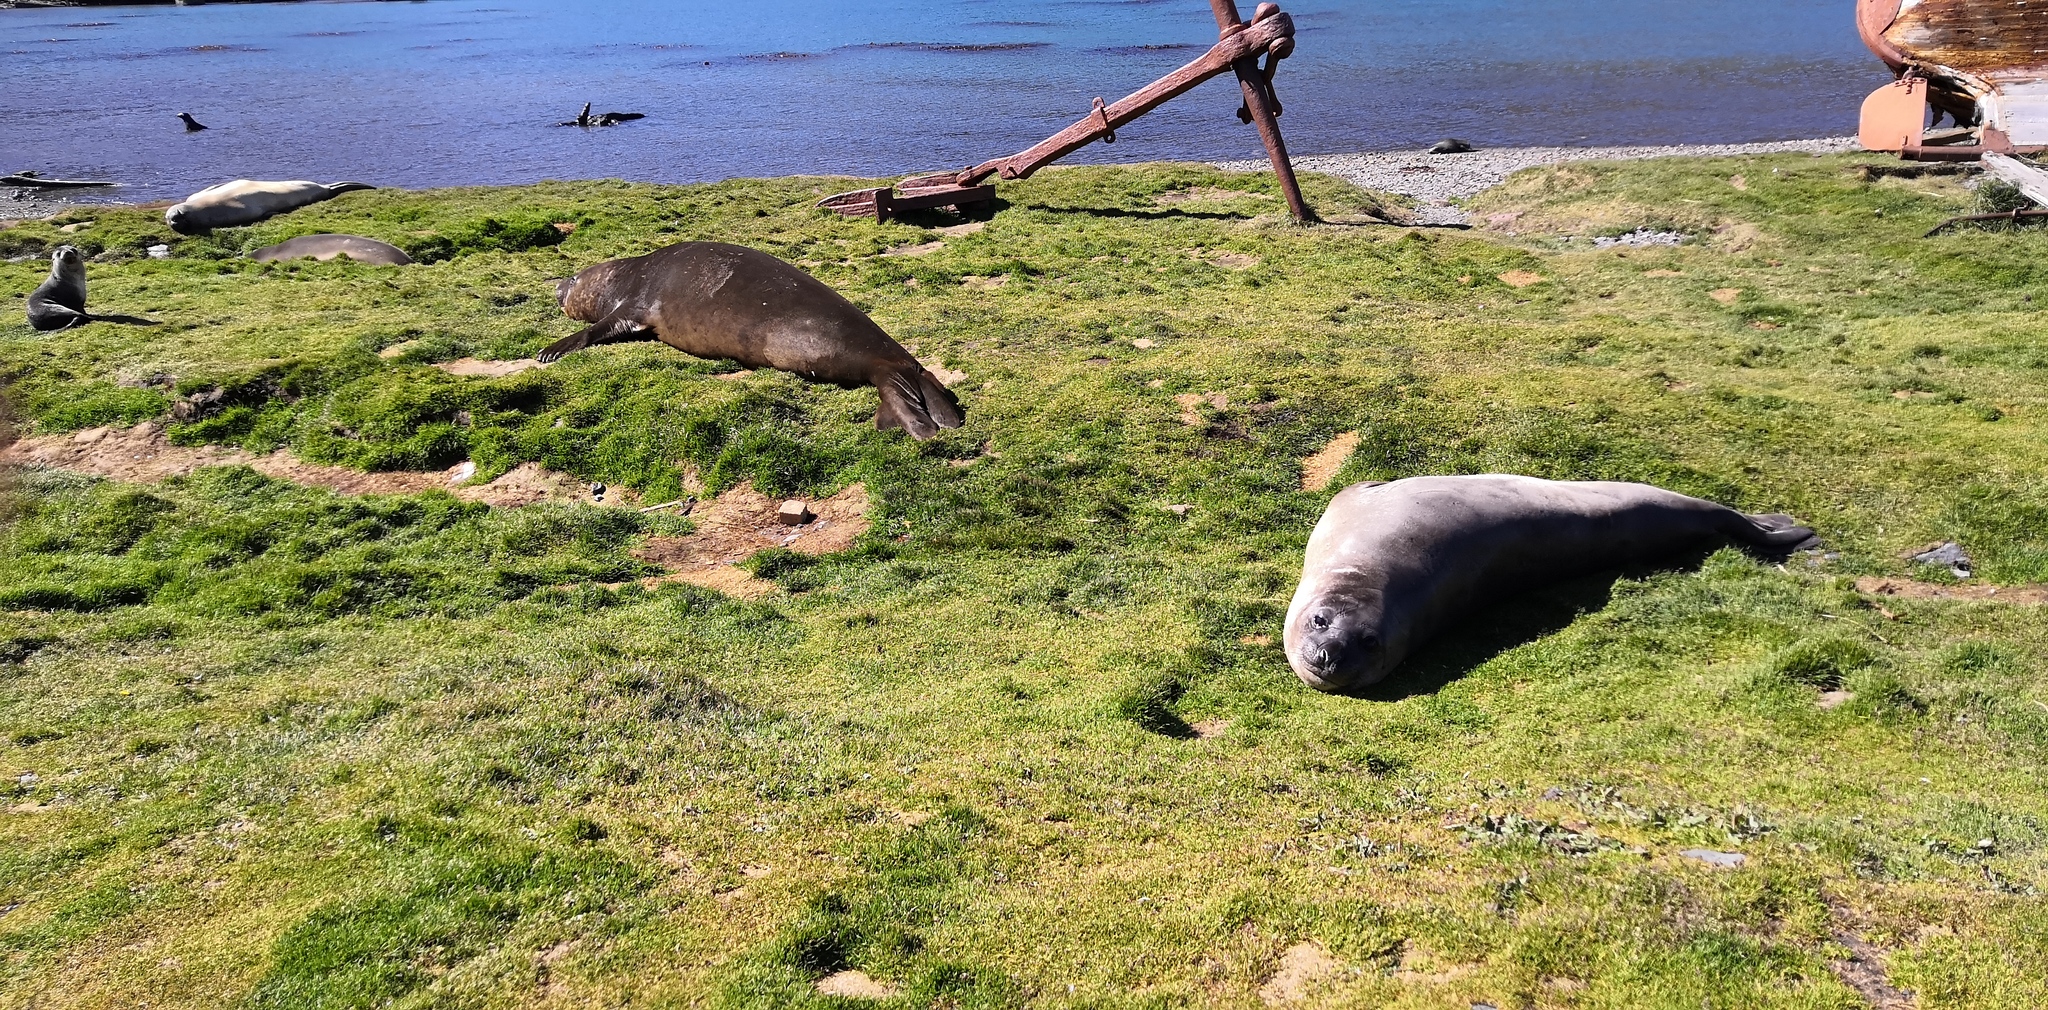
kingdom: Animalia
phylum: Chordata
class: Mammalia
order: Carnivora
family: Phocidae
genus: Mirounga
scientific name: Mirounga leonina
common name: Southern elephant seal
